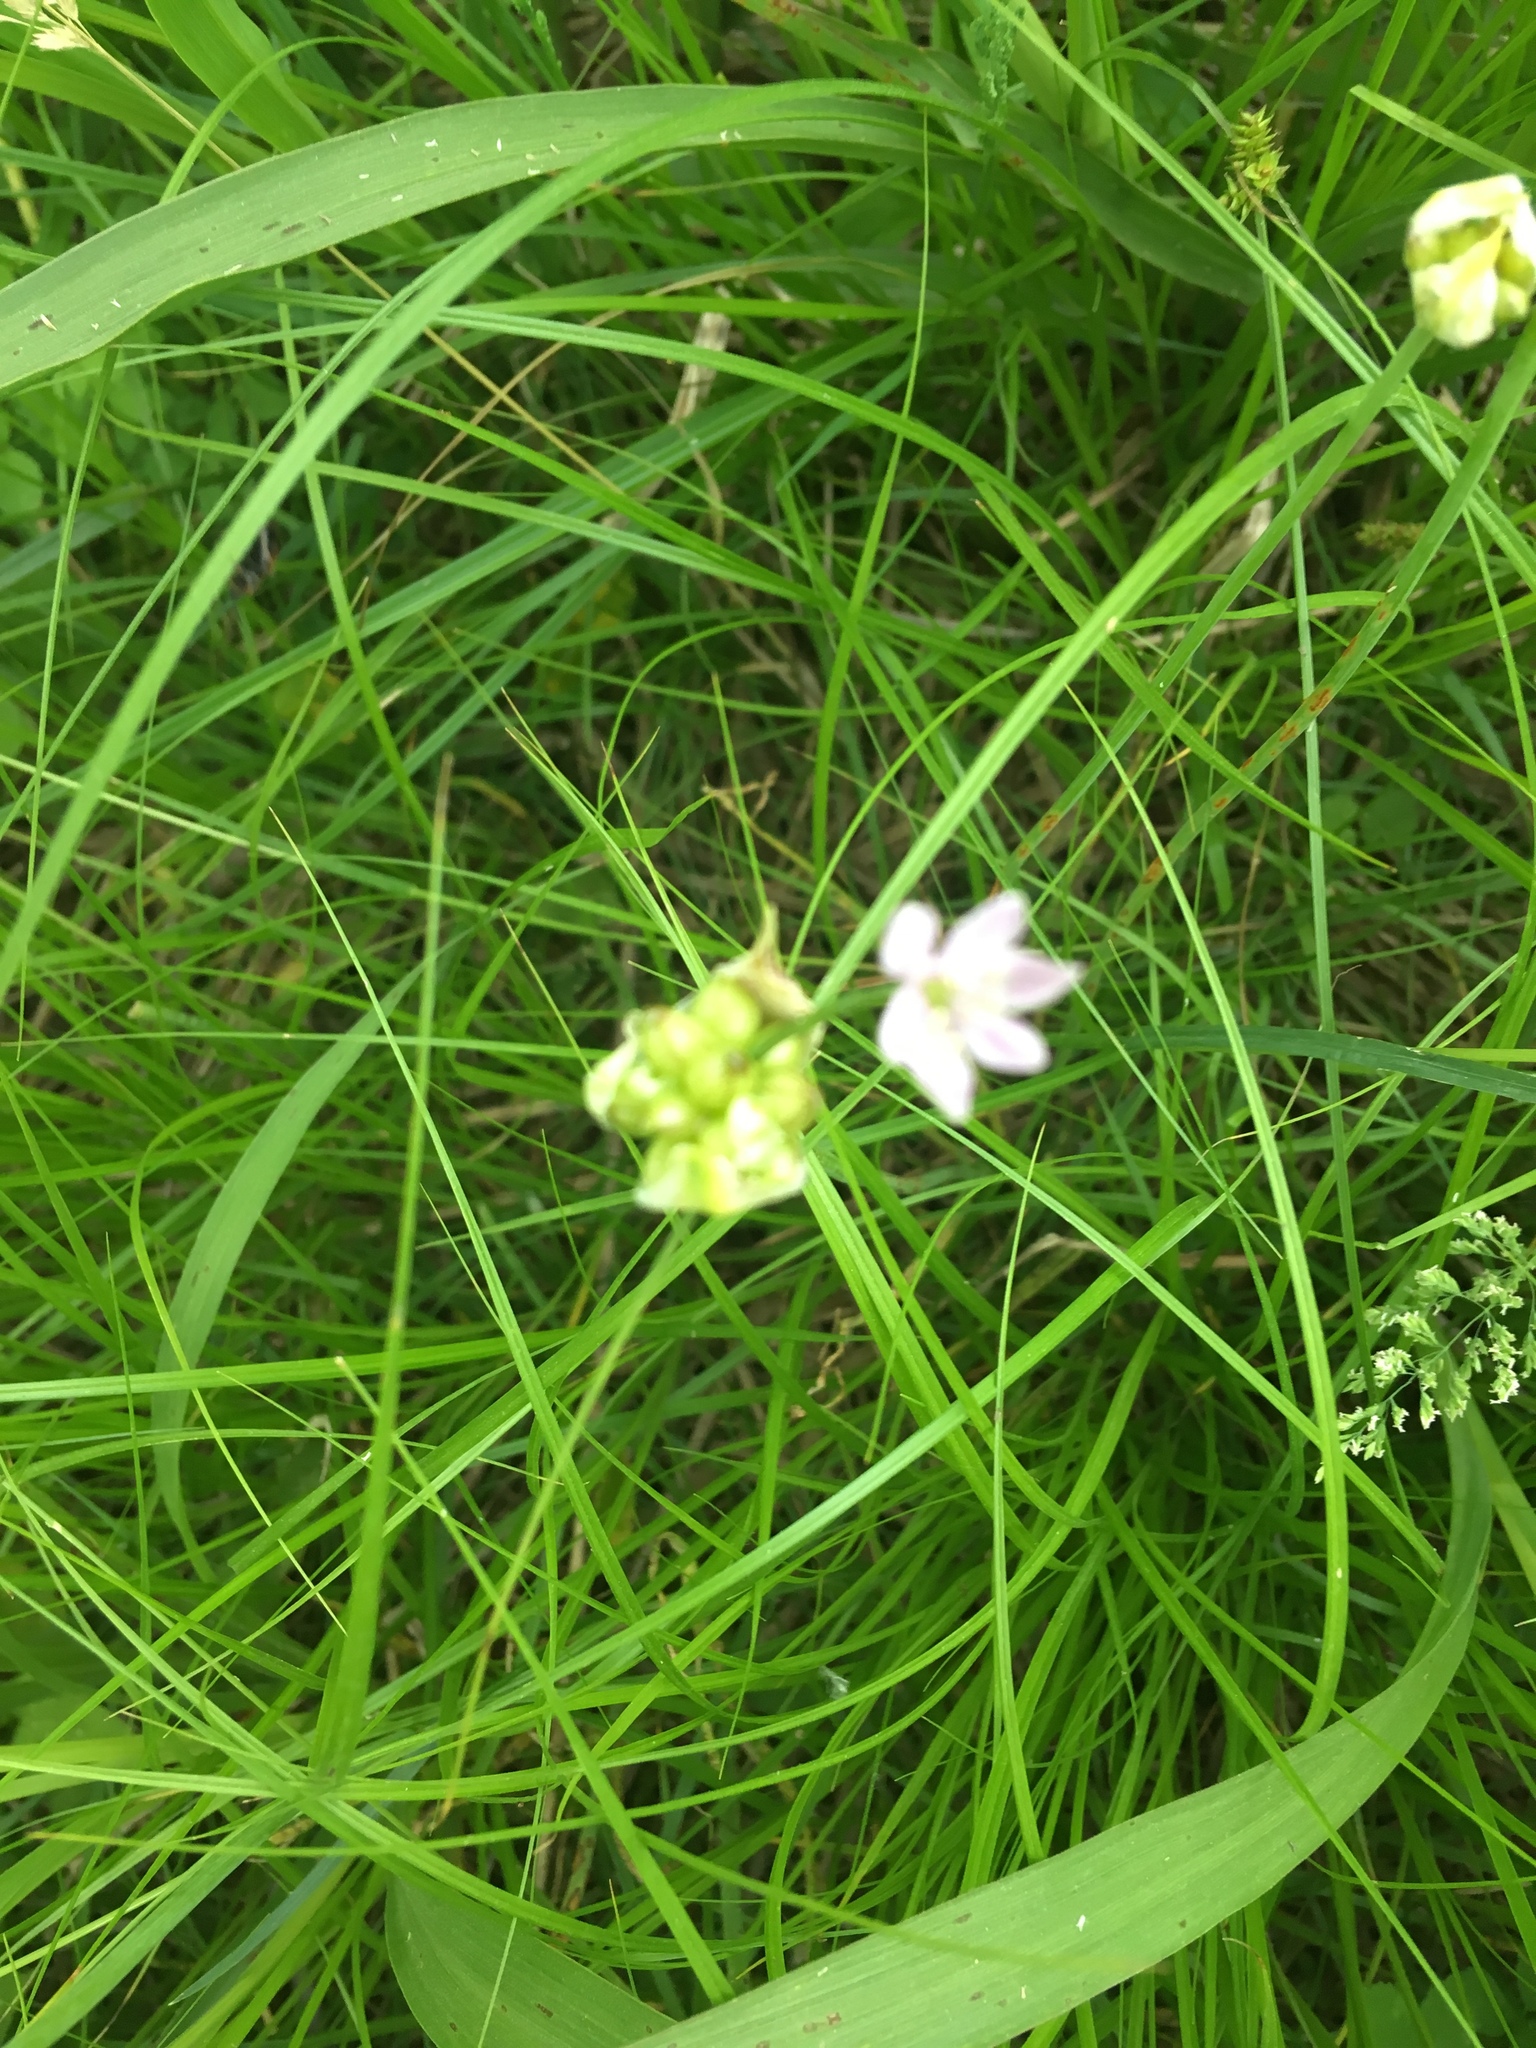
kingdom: Plantae
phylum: Tracheophyta
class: Liliopsida
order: Asparagales
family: Amaryllidaceae
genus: Allium
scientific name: Allium canadense
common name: Meadow garlic
